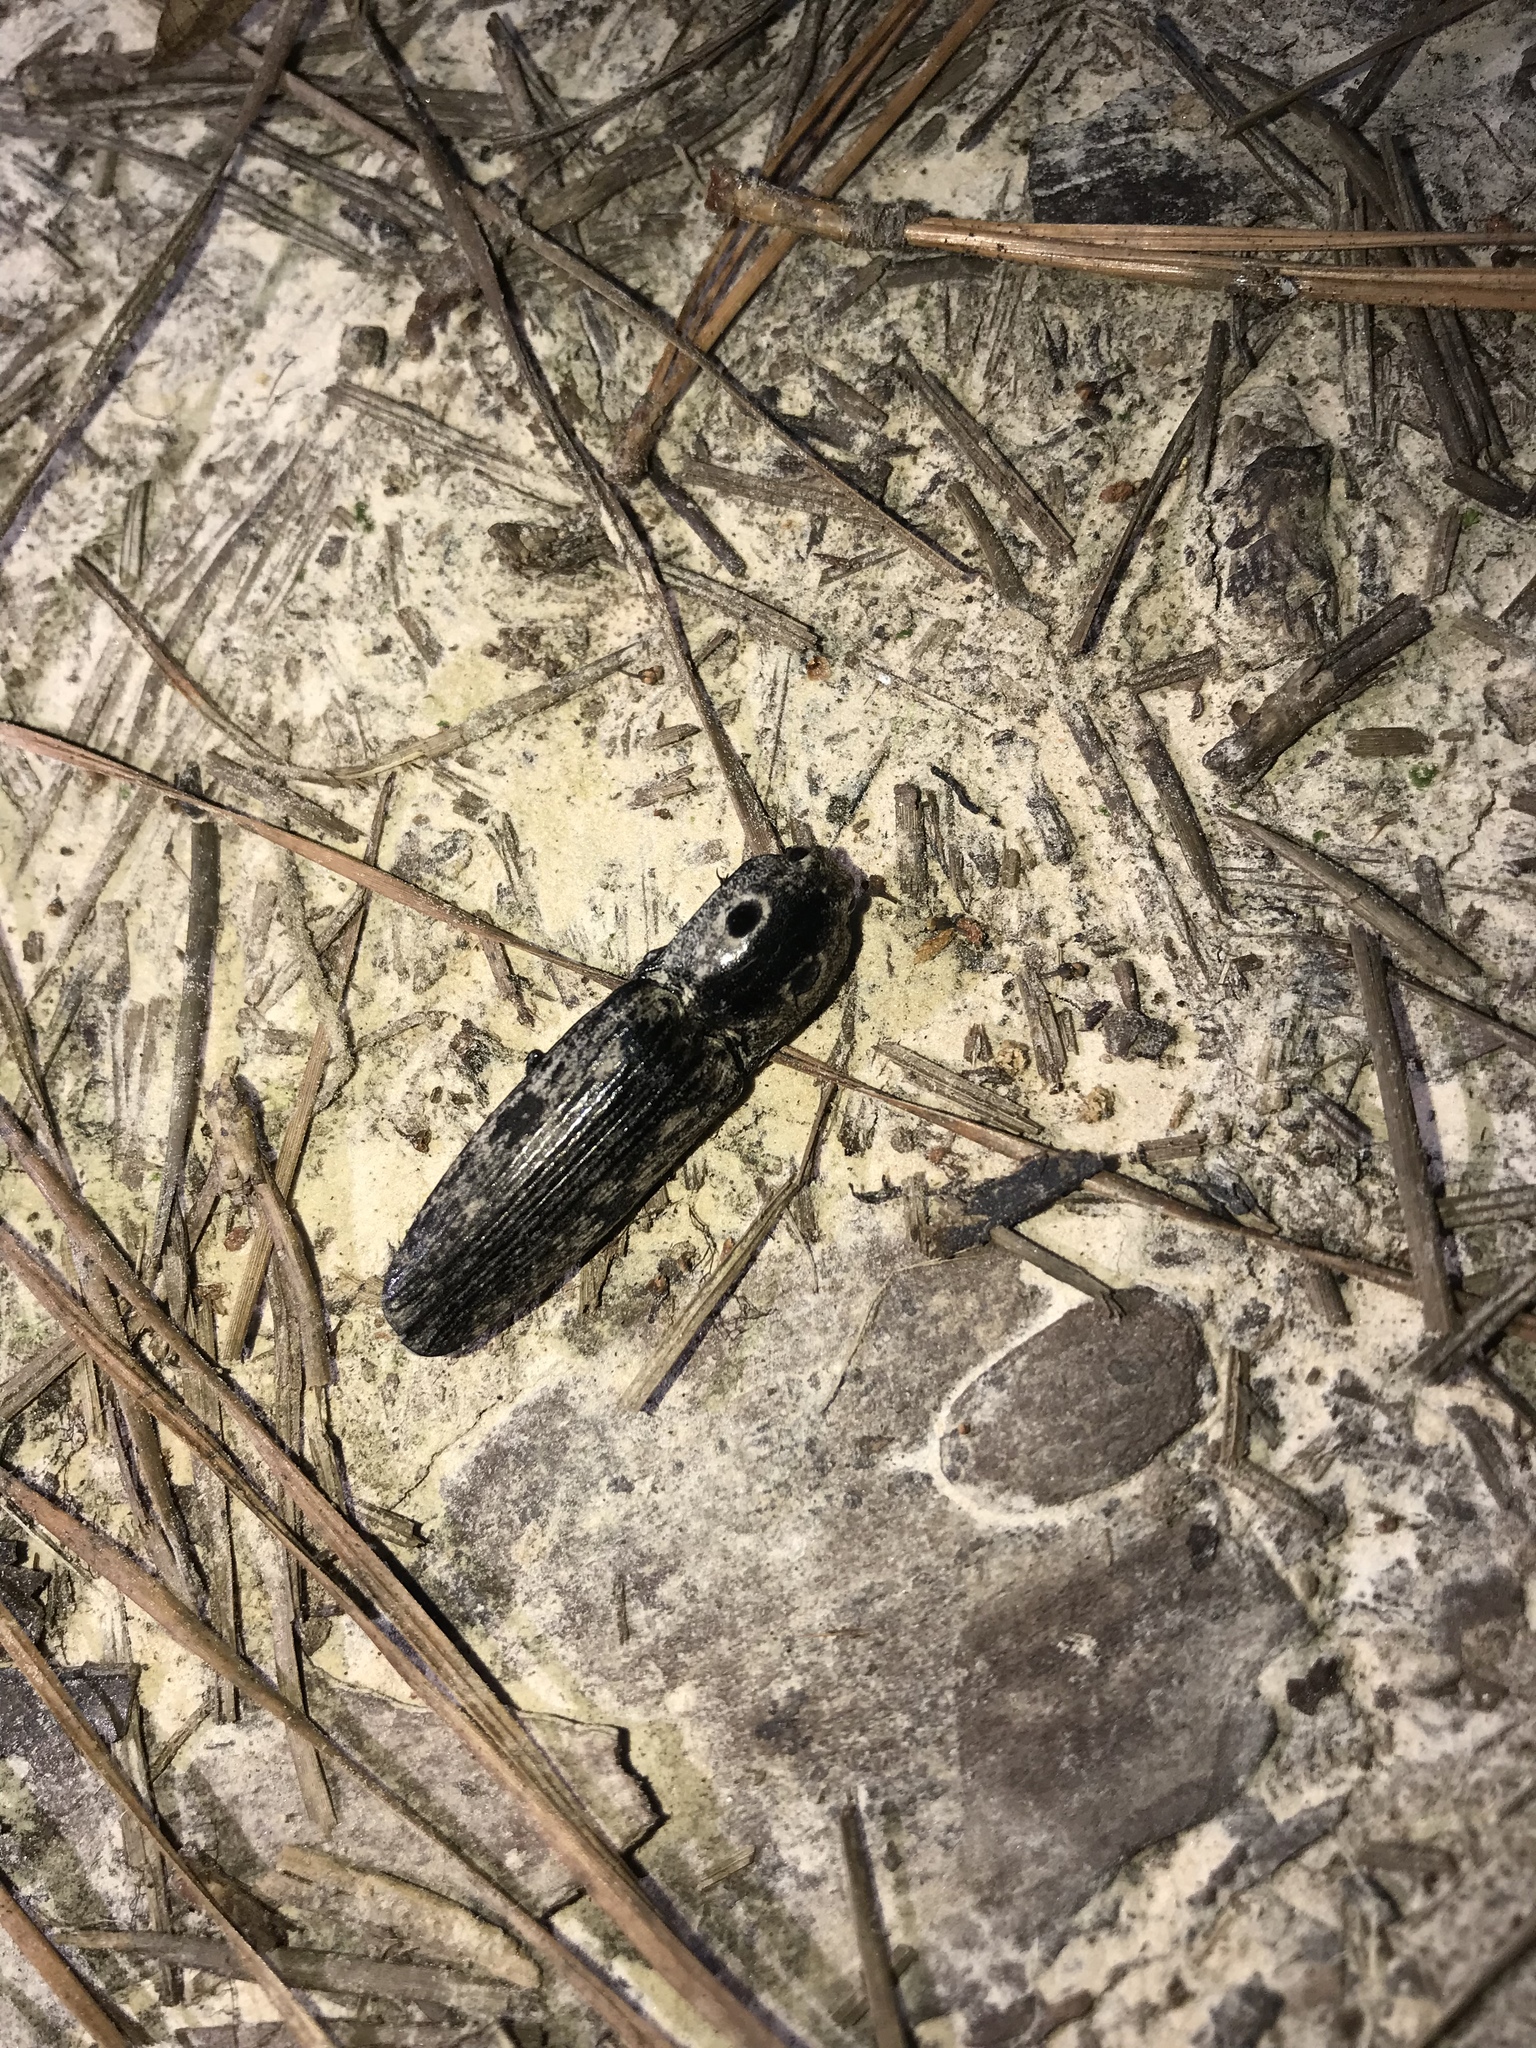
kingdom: Animalia
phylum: Arthropoda
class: Insecta
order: Coleoptera
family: Elateridae
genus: Alaus
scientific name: Alaus myops
